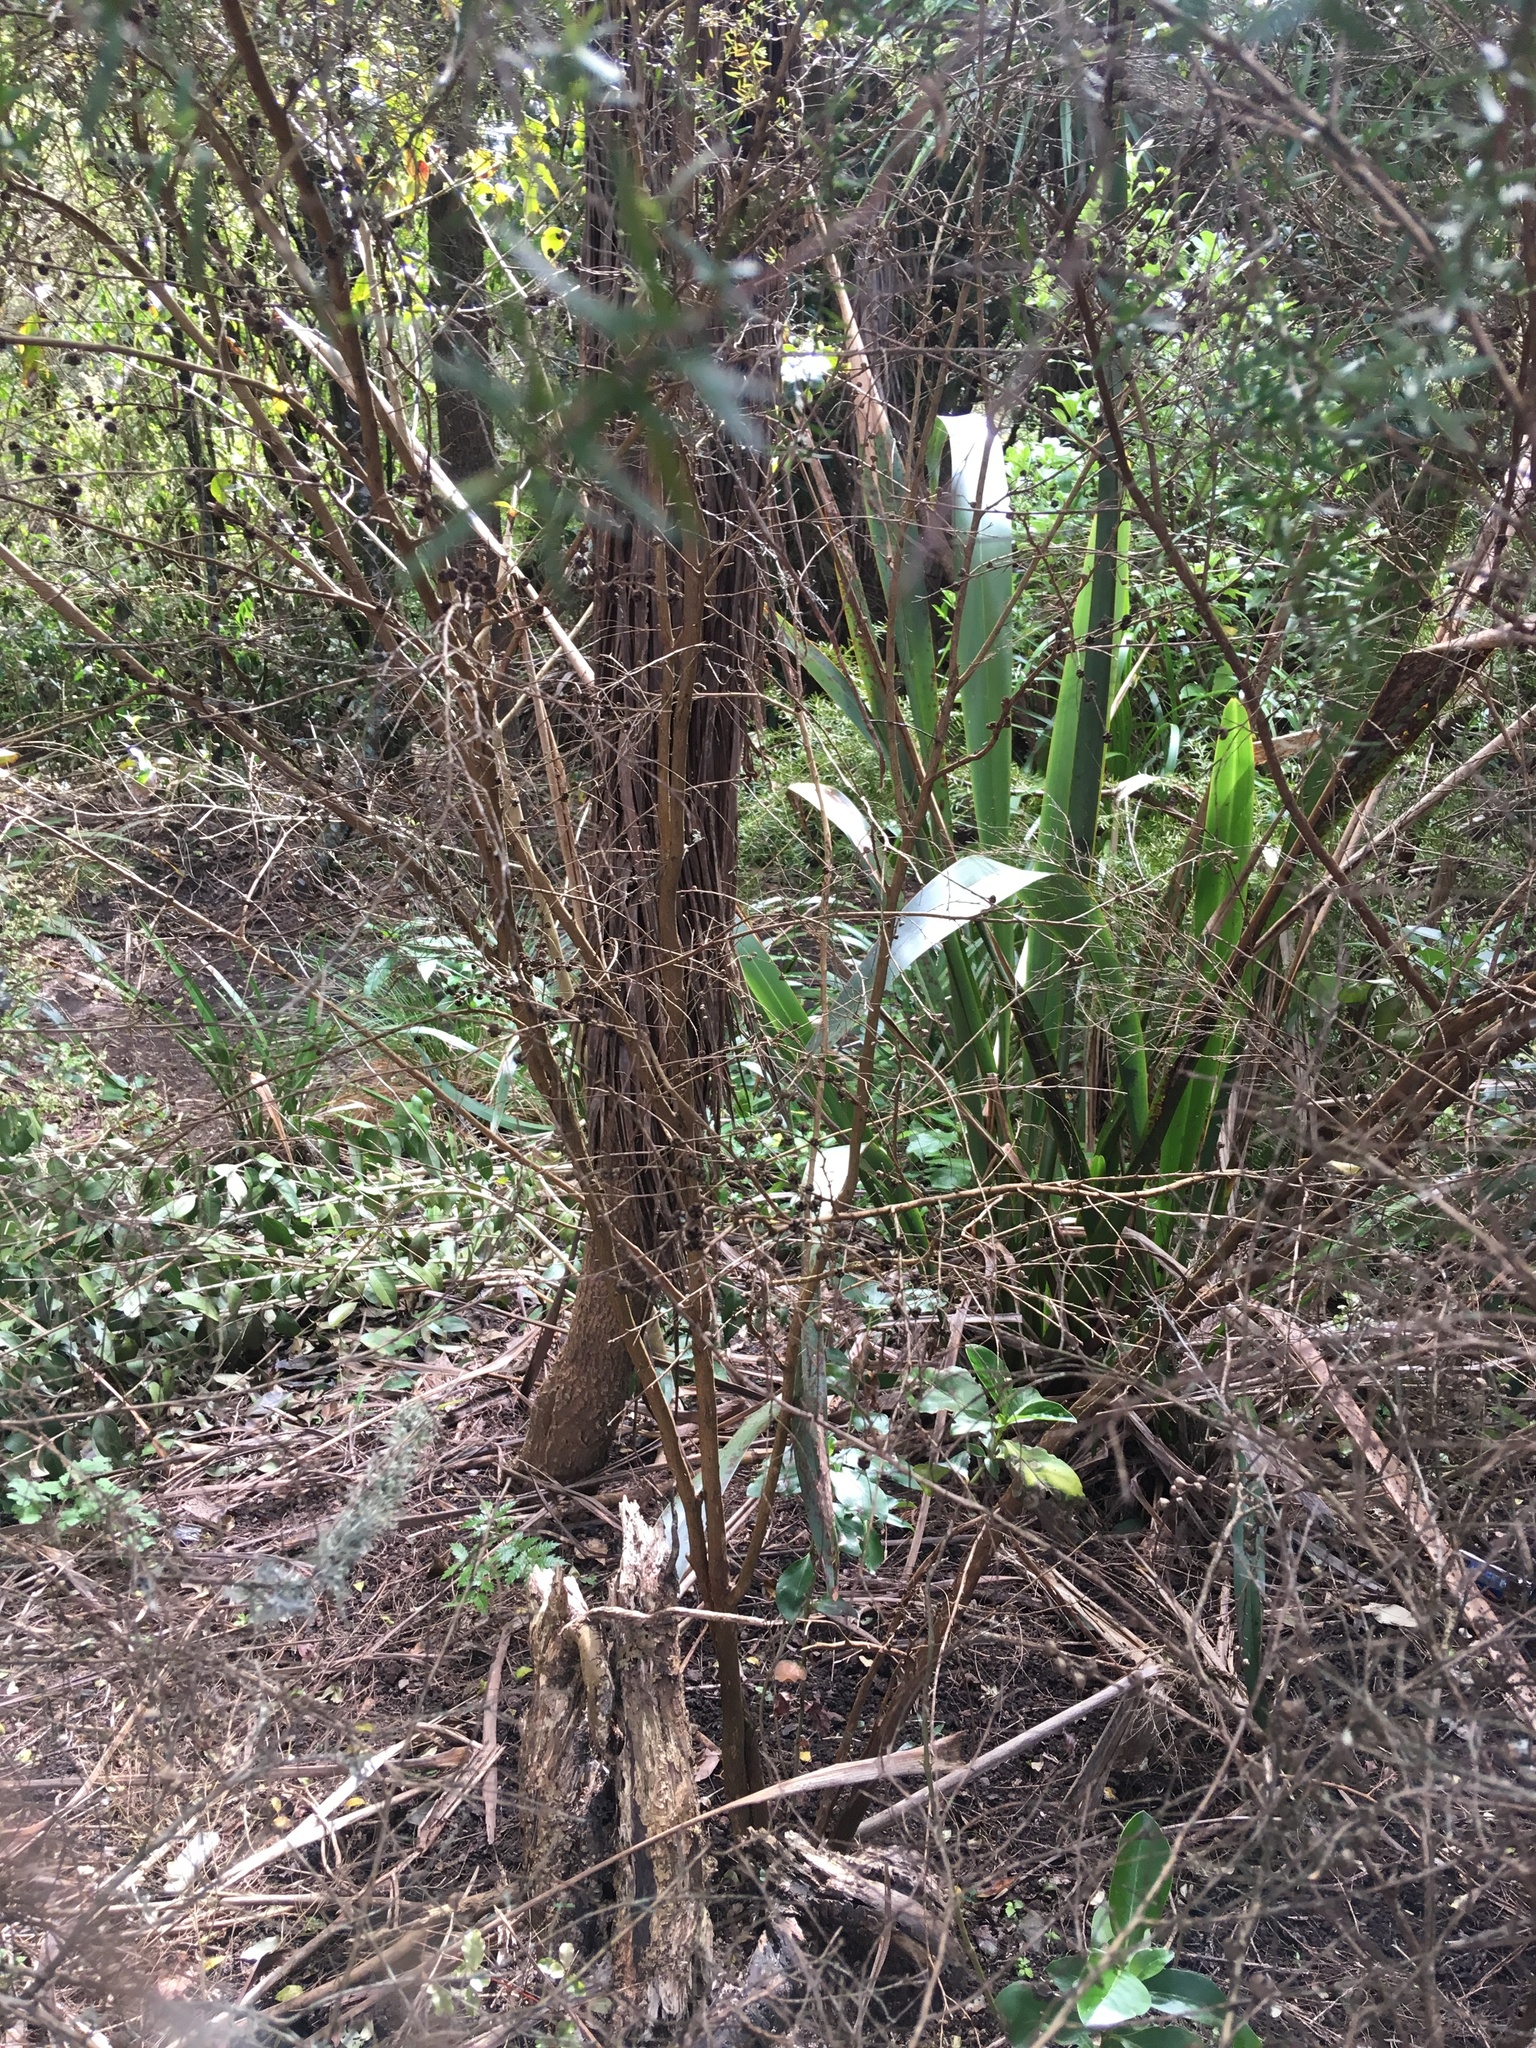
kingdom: Plantae
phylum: Tracheophyta
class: Liliopsida
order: Asparagales
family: Asphodelaceae
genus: Phormium
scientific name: Phormium tenax
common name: New zealand flax
